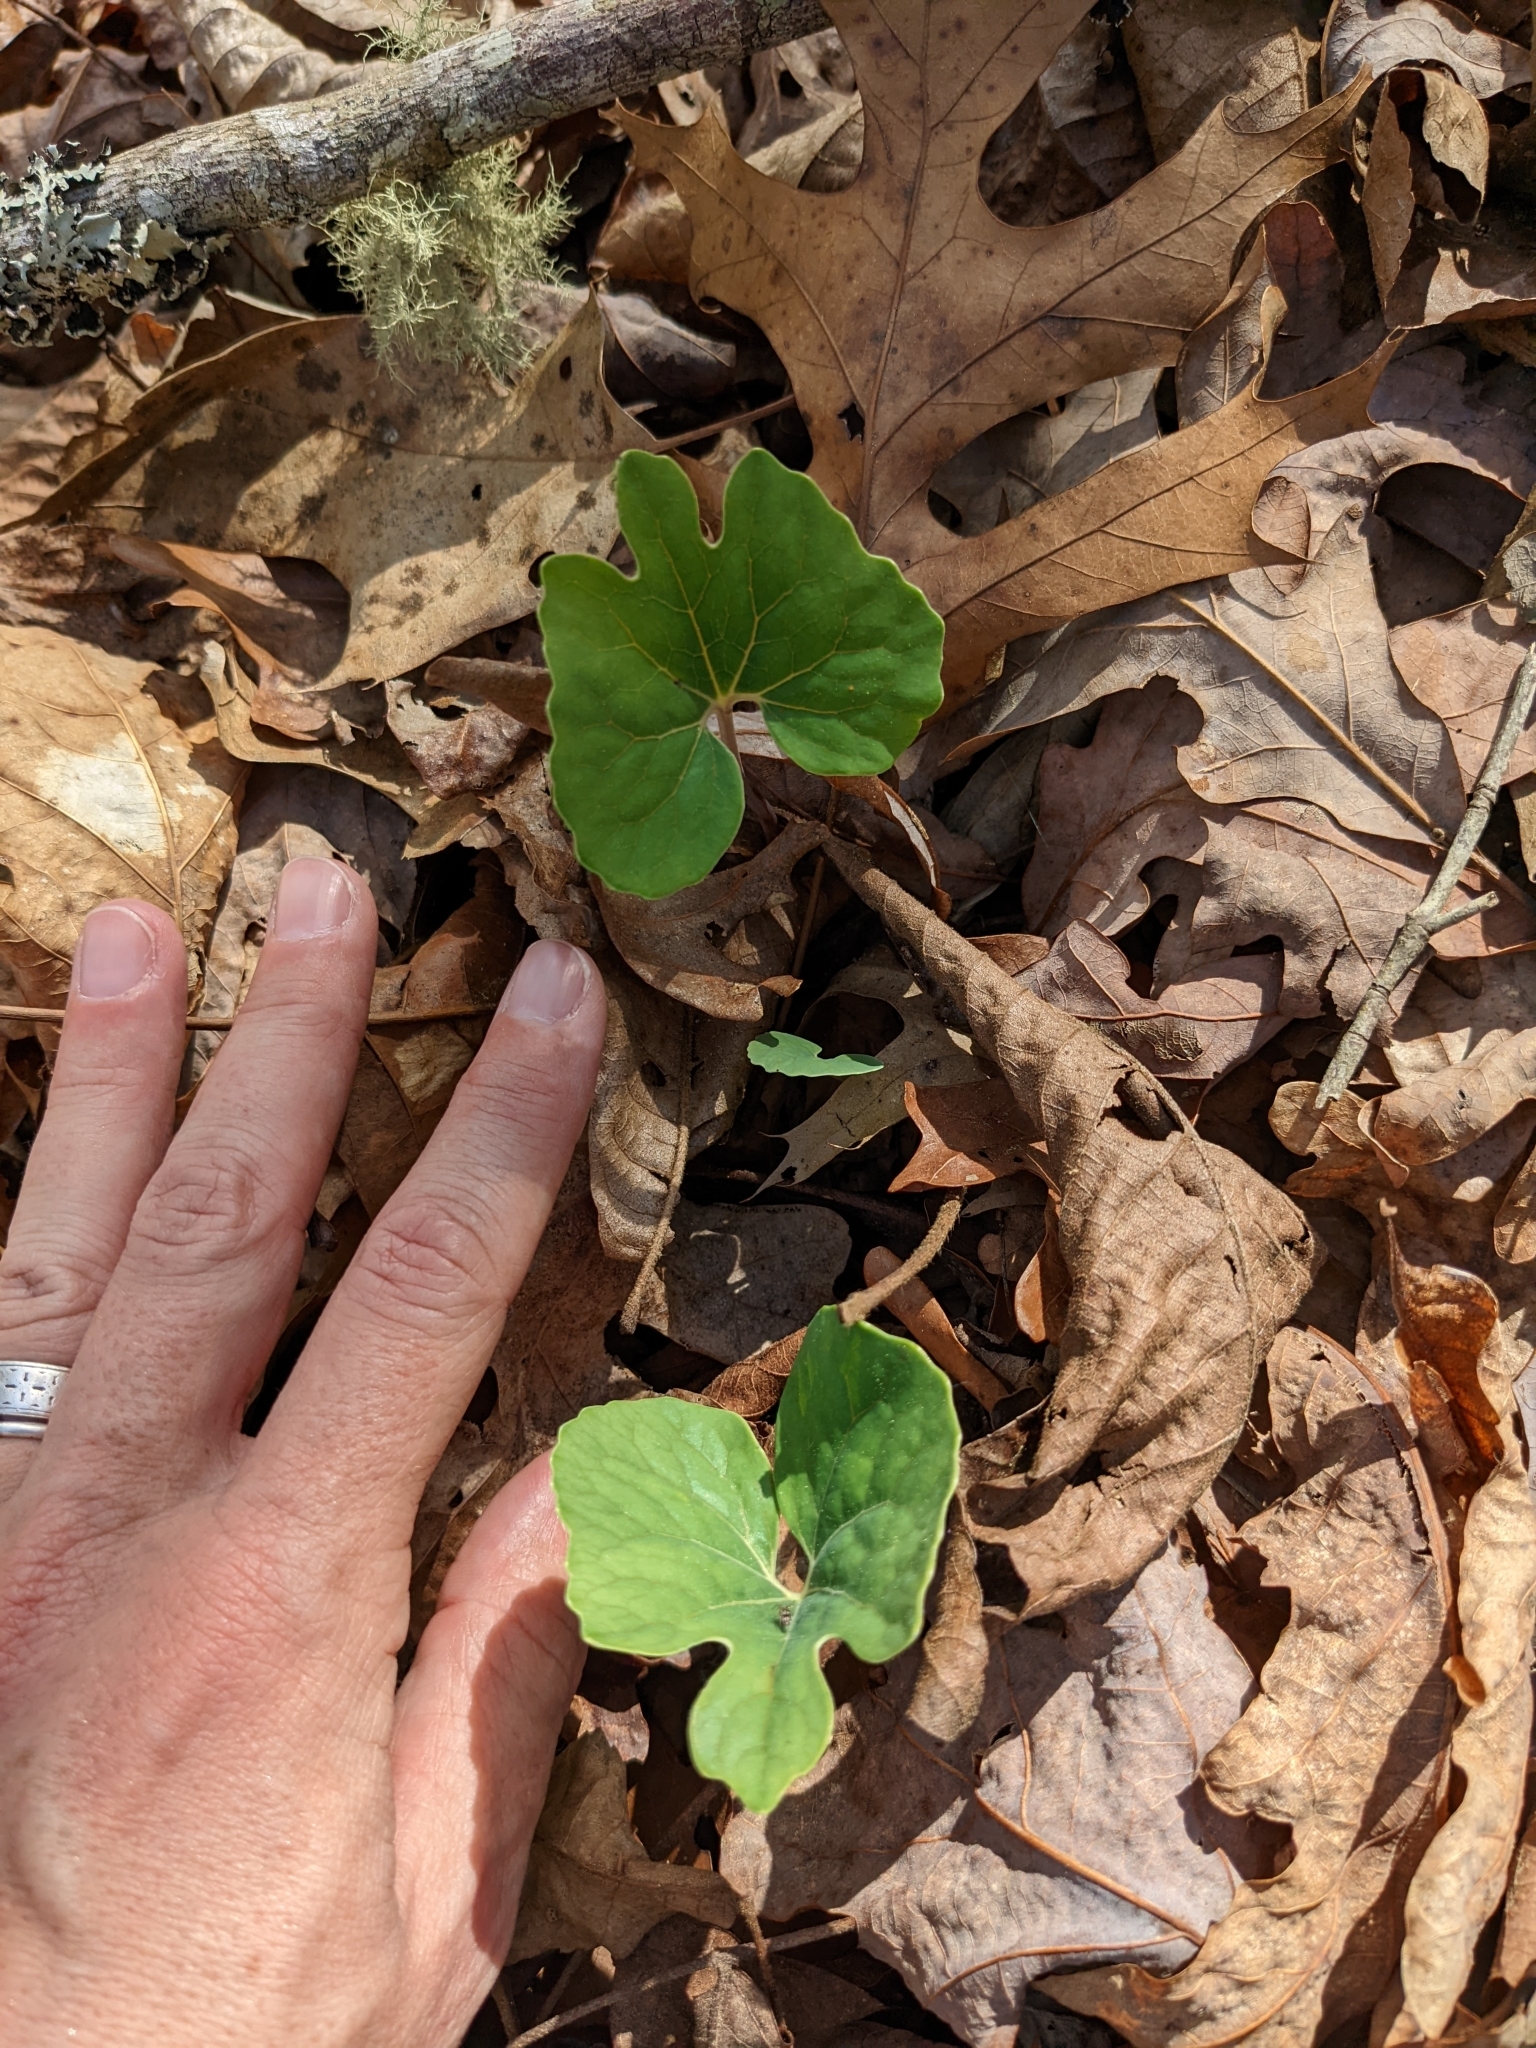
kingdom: Plantae
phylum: Tracheophyta
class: Magnoliopsida
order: Ranunculales
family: Papaveraceae
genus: Sanguinaria
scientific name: Sanguinaria canadensis
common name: Bloodroot
